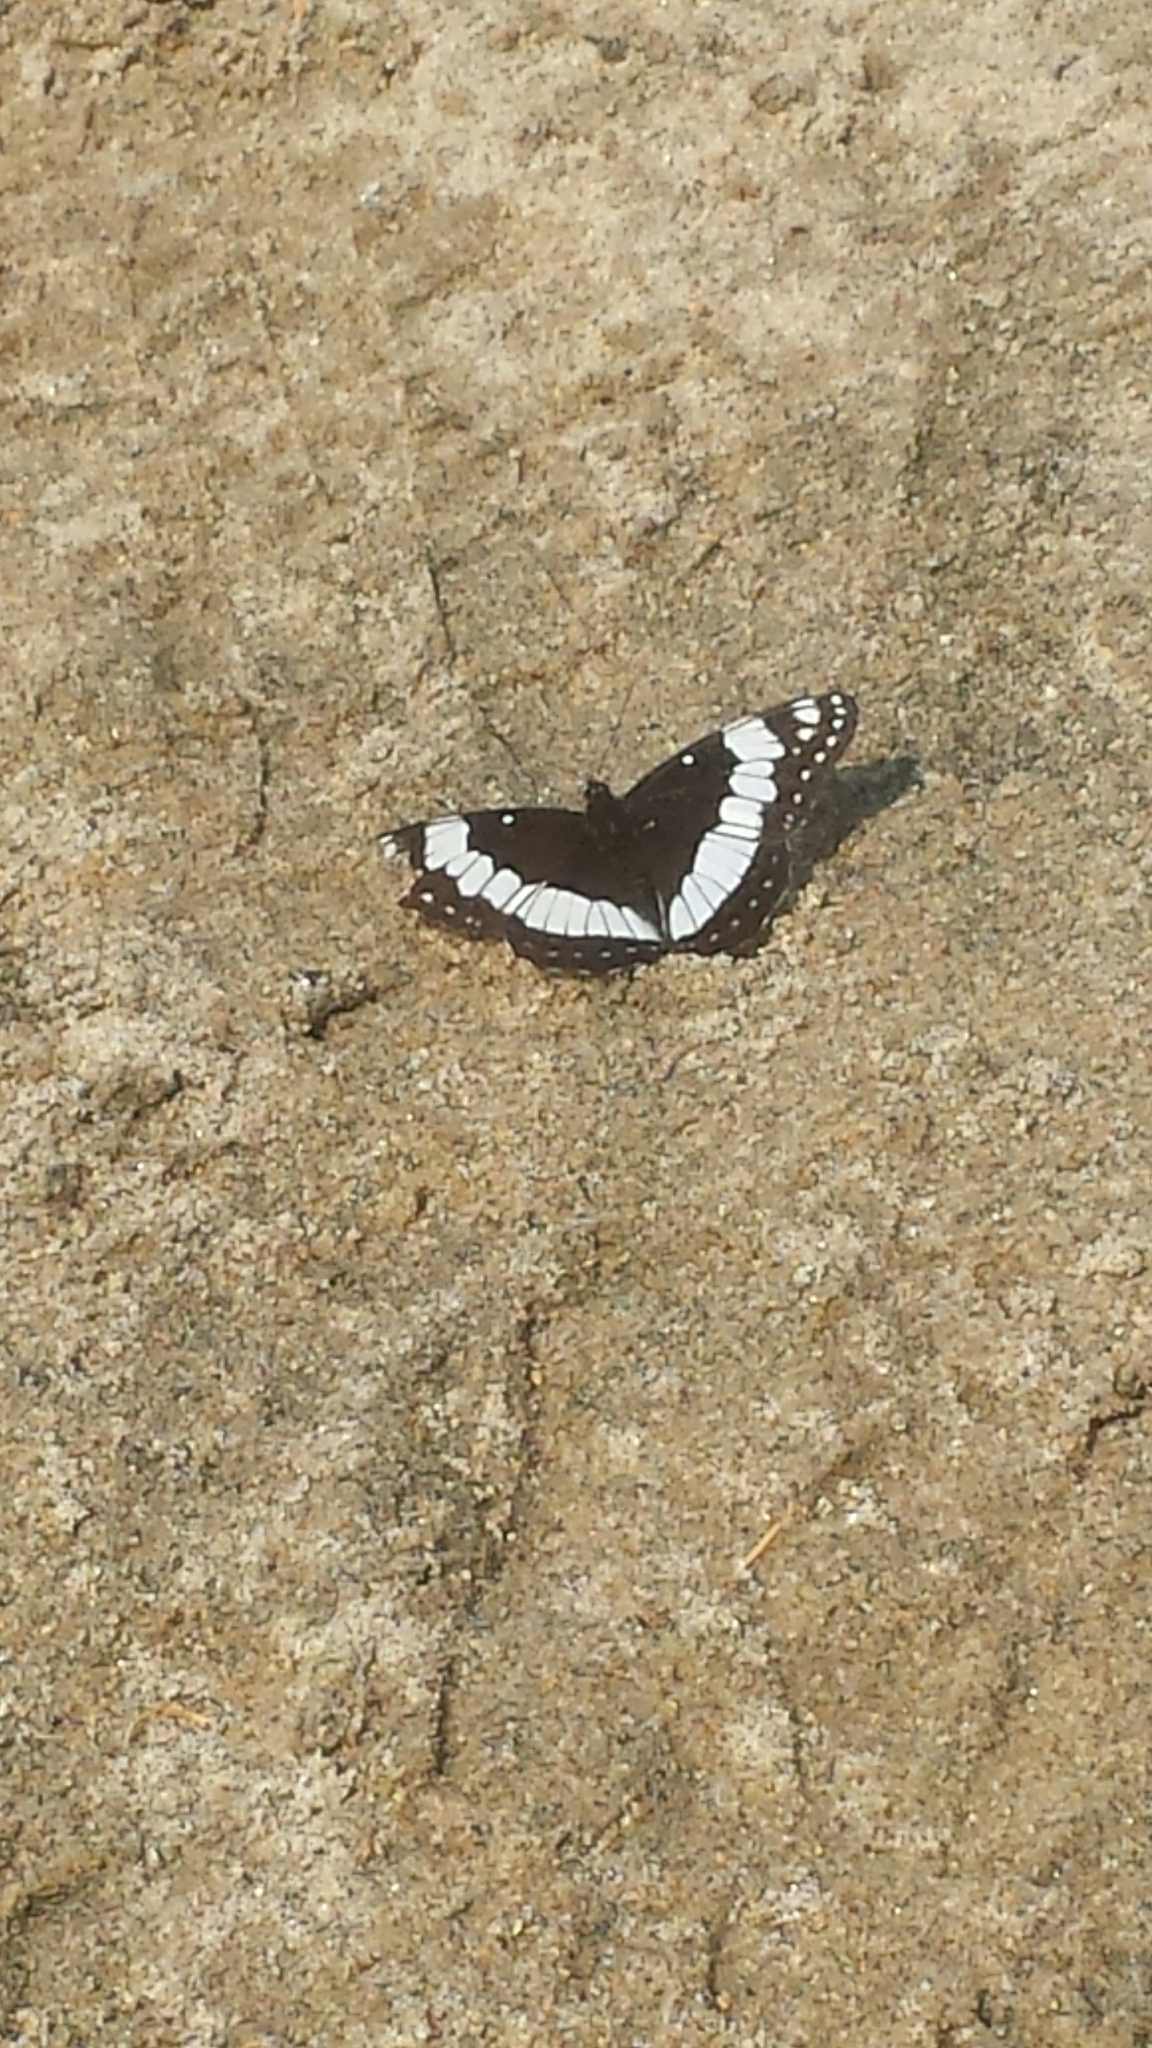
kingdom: Animalia
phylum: Arthropoda
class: Insecta
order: Lepidoptera
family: Nymphalidae
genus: Limenitis
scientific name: Limenitis weidemeyerii
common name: Weidemeyer's admiral
